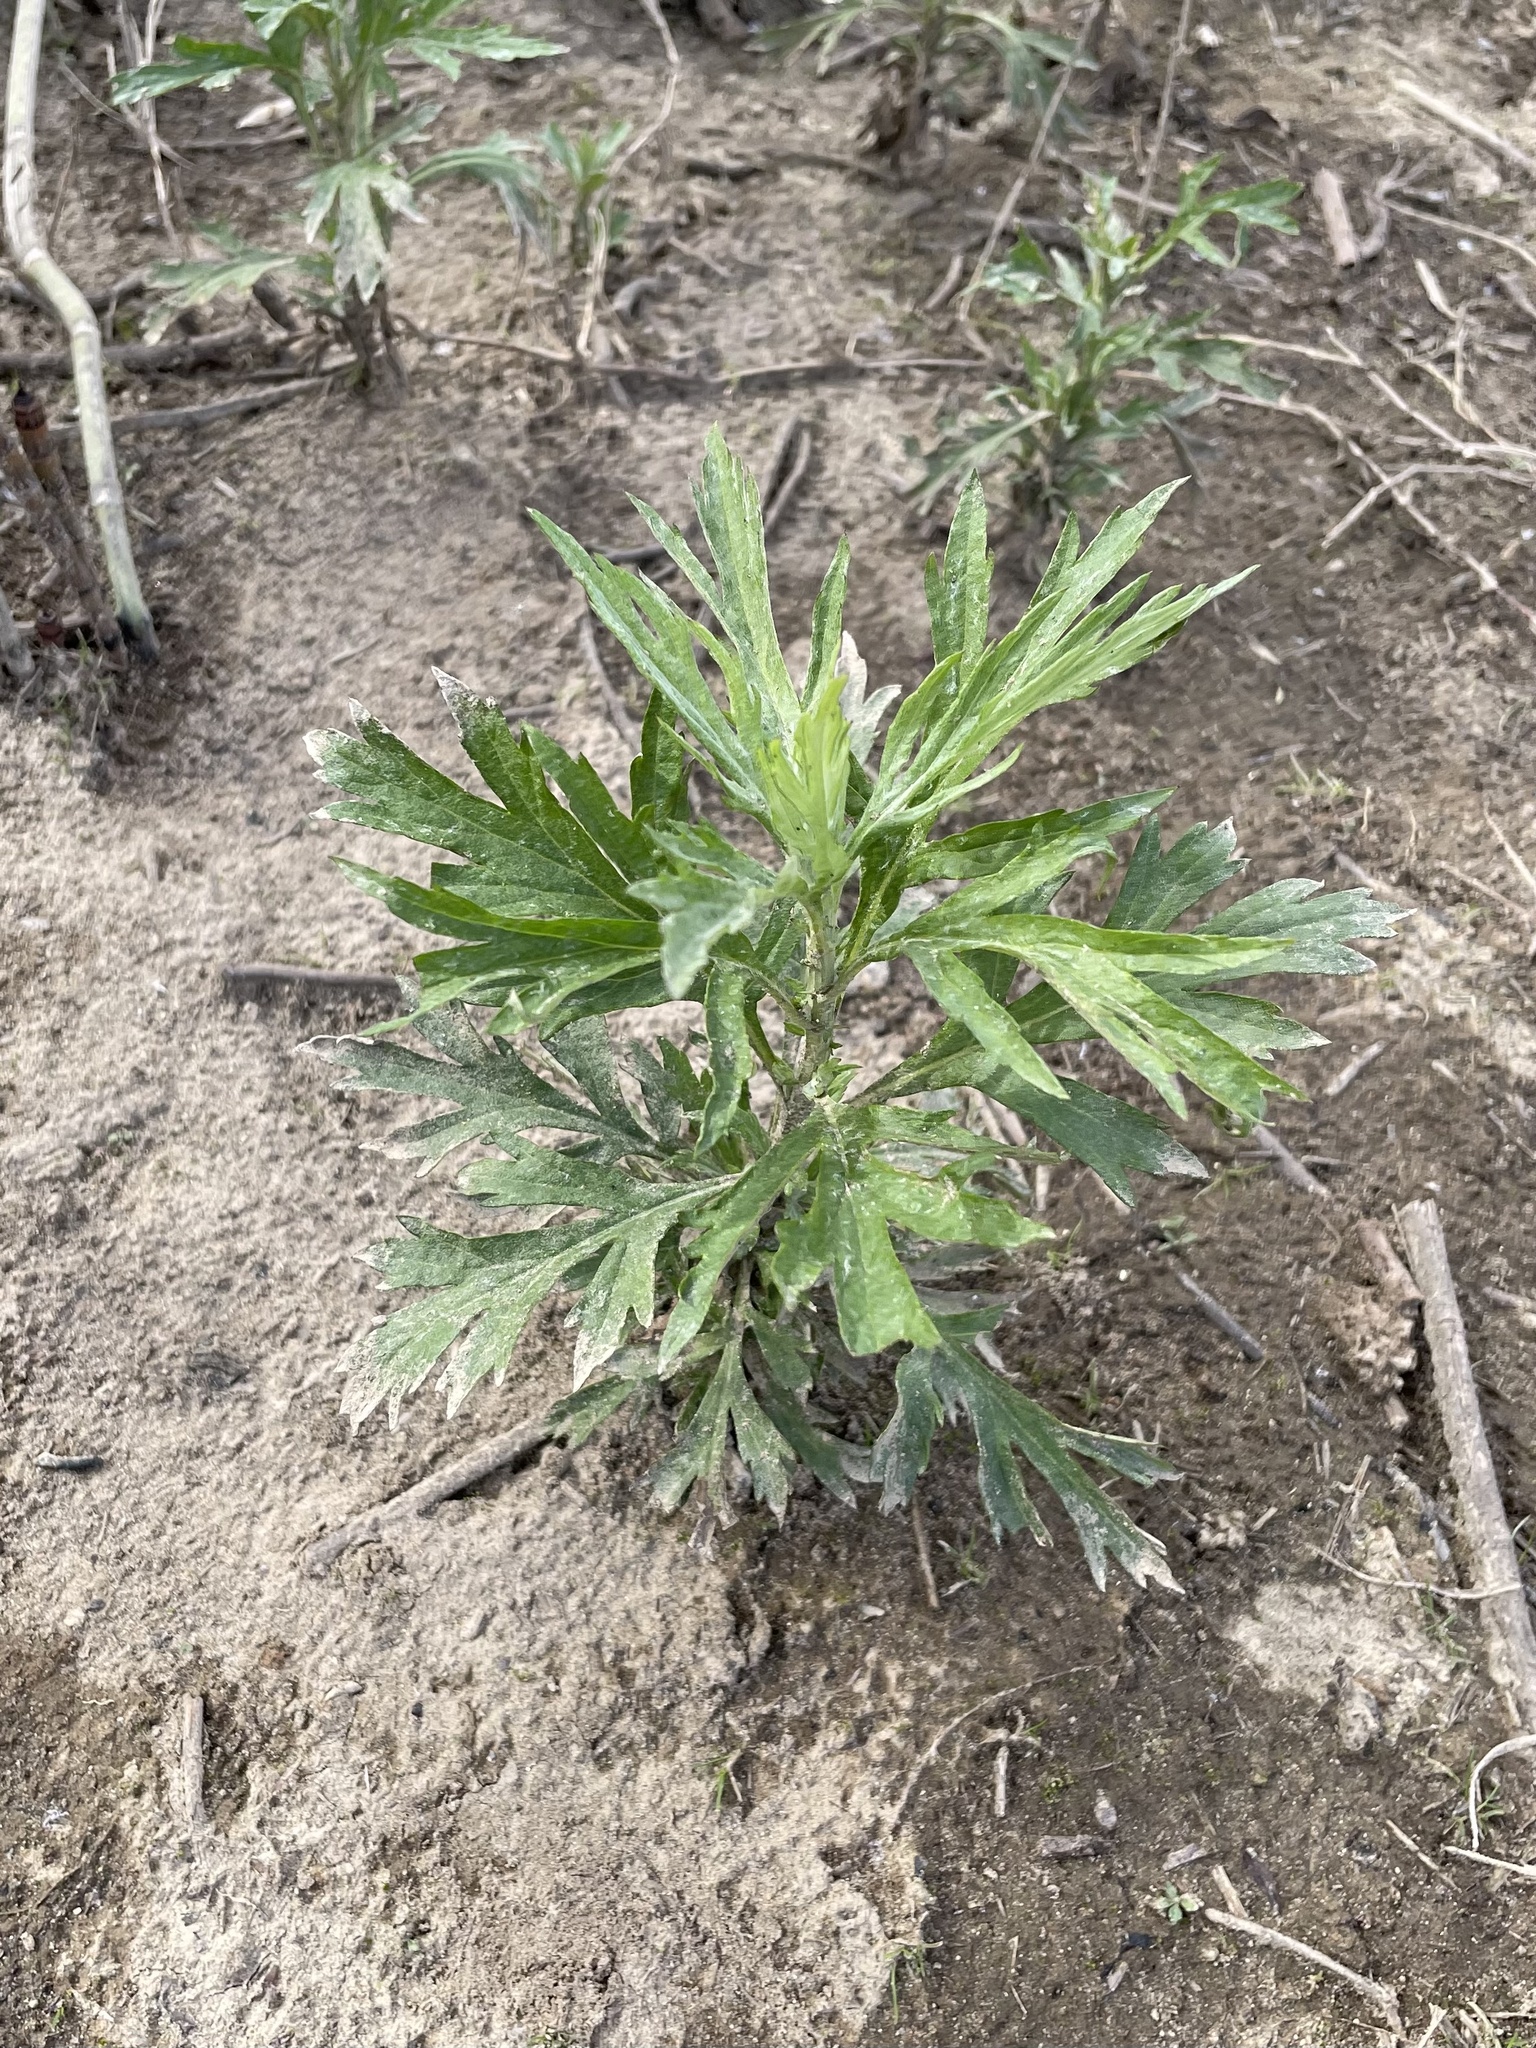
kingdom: Plantae
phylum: Tracheophyta
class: Magnoliopsida
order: Asterales
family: Asteraceae
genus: Artemisia
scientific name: Artemisia douglasiana
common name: Northwest mugwort
